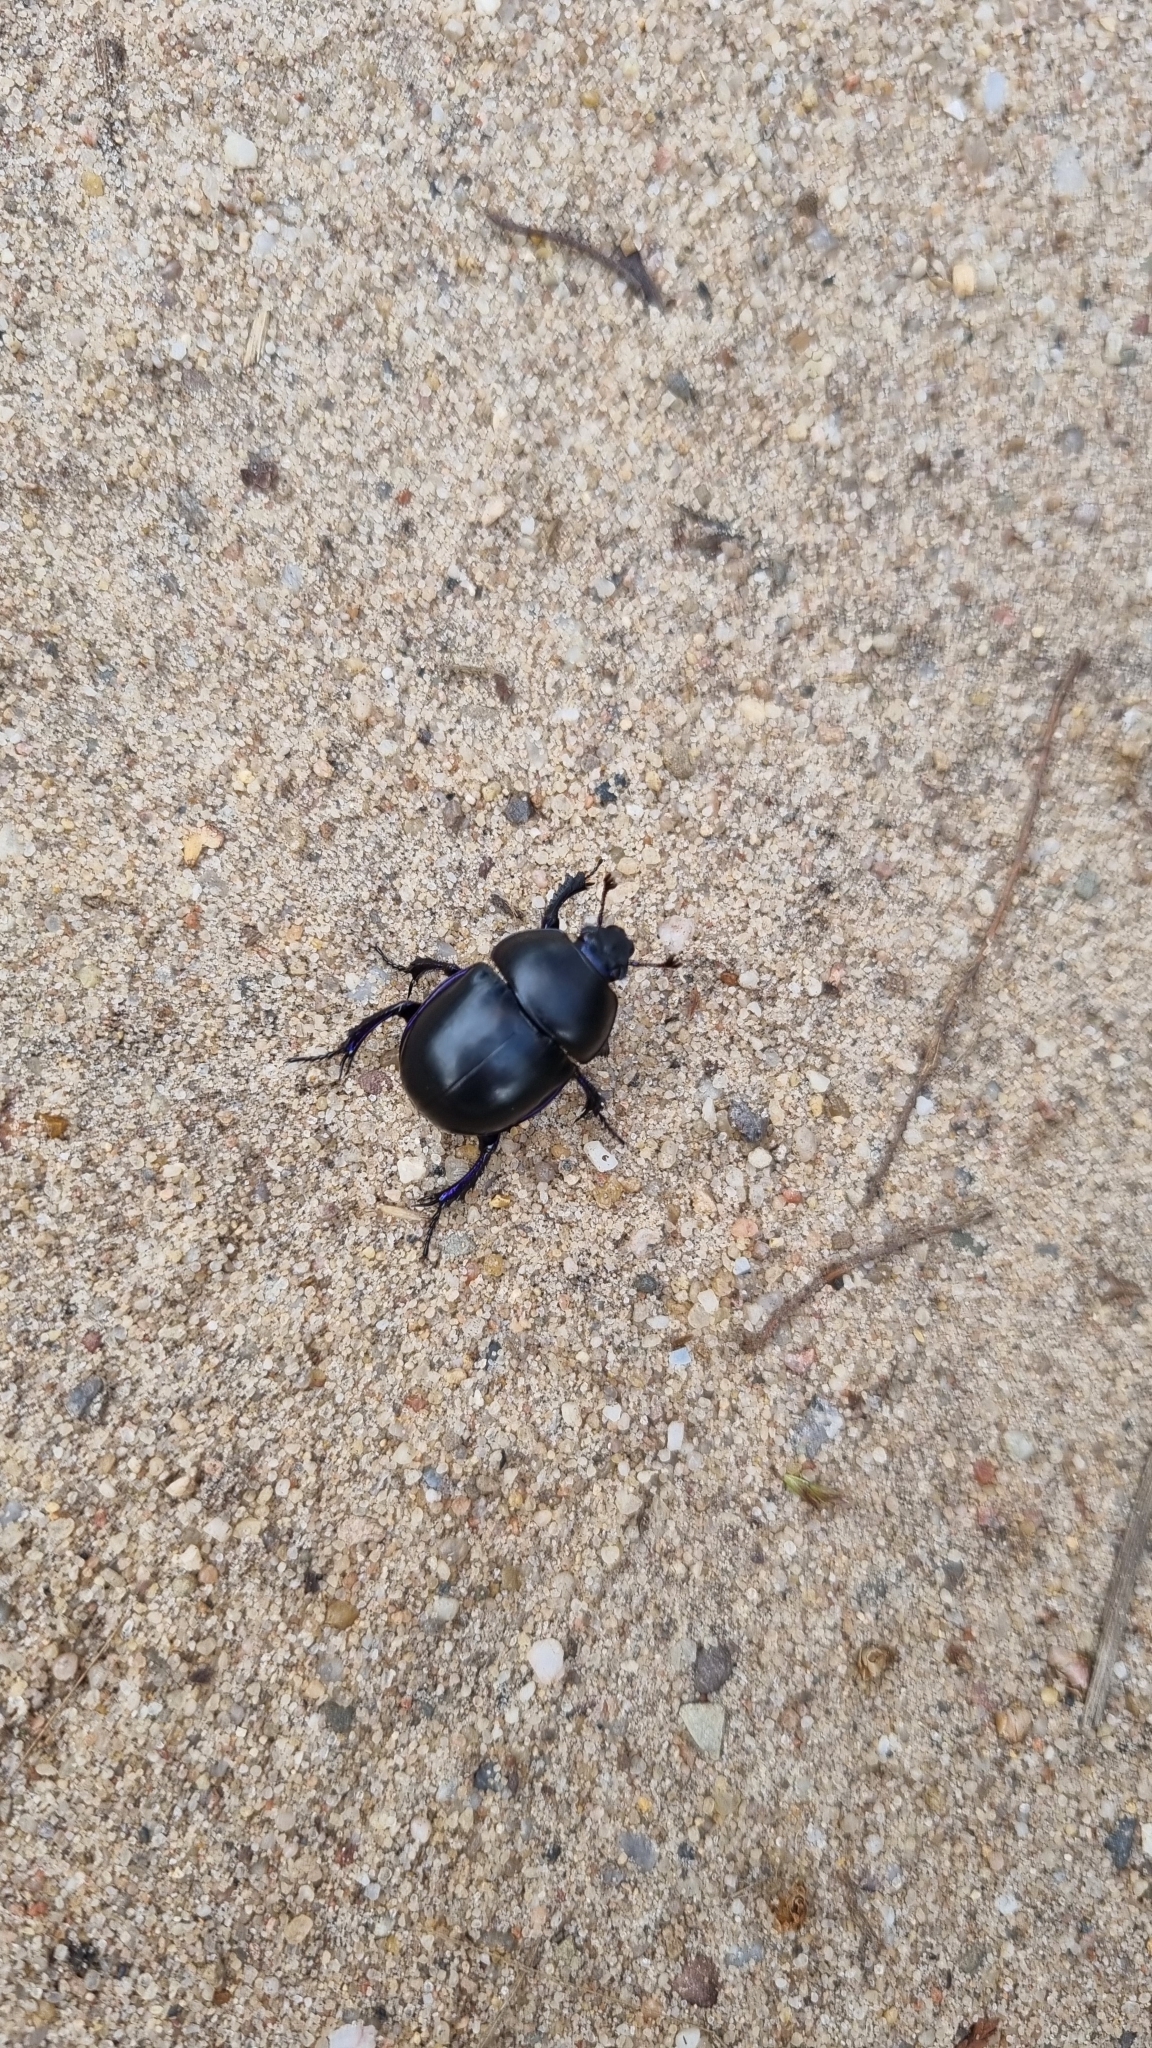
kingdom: Animalia
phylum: Arthropoda
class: Insecta
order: Coleoptera
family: Geotrupidae
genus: Anoplotrupes
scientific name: Anoplotrupes stercorosus
